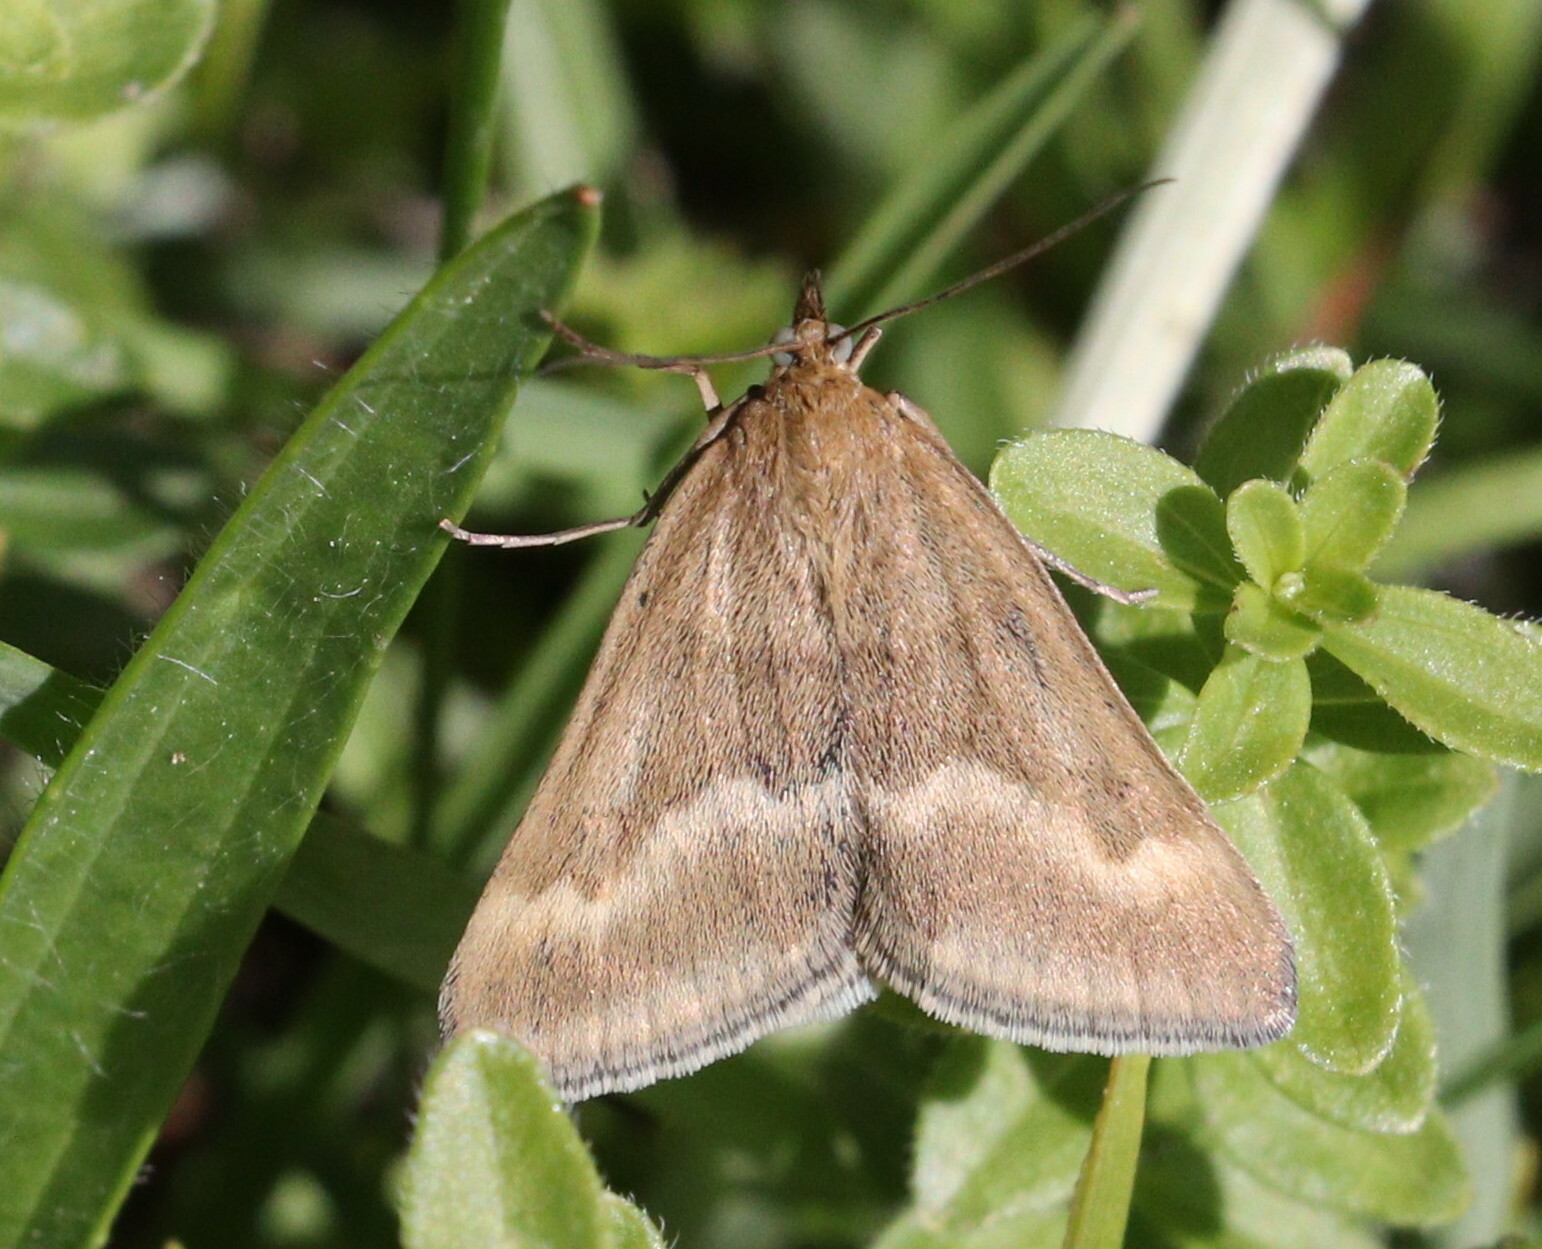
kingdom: Animalia
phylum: Arthropoda
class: Insecta
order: Lepidoptera
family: Crambidae
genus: Pyrausta
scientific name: Pyrausta aerealis
